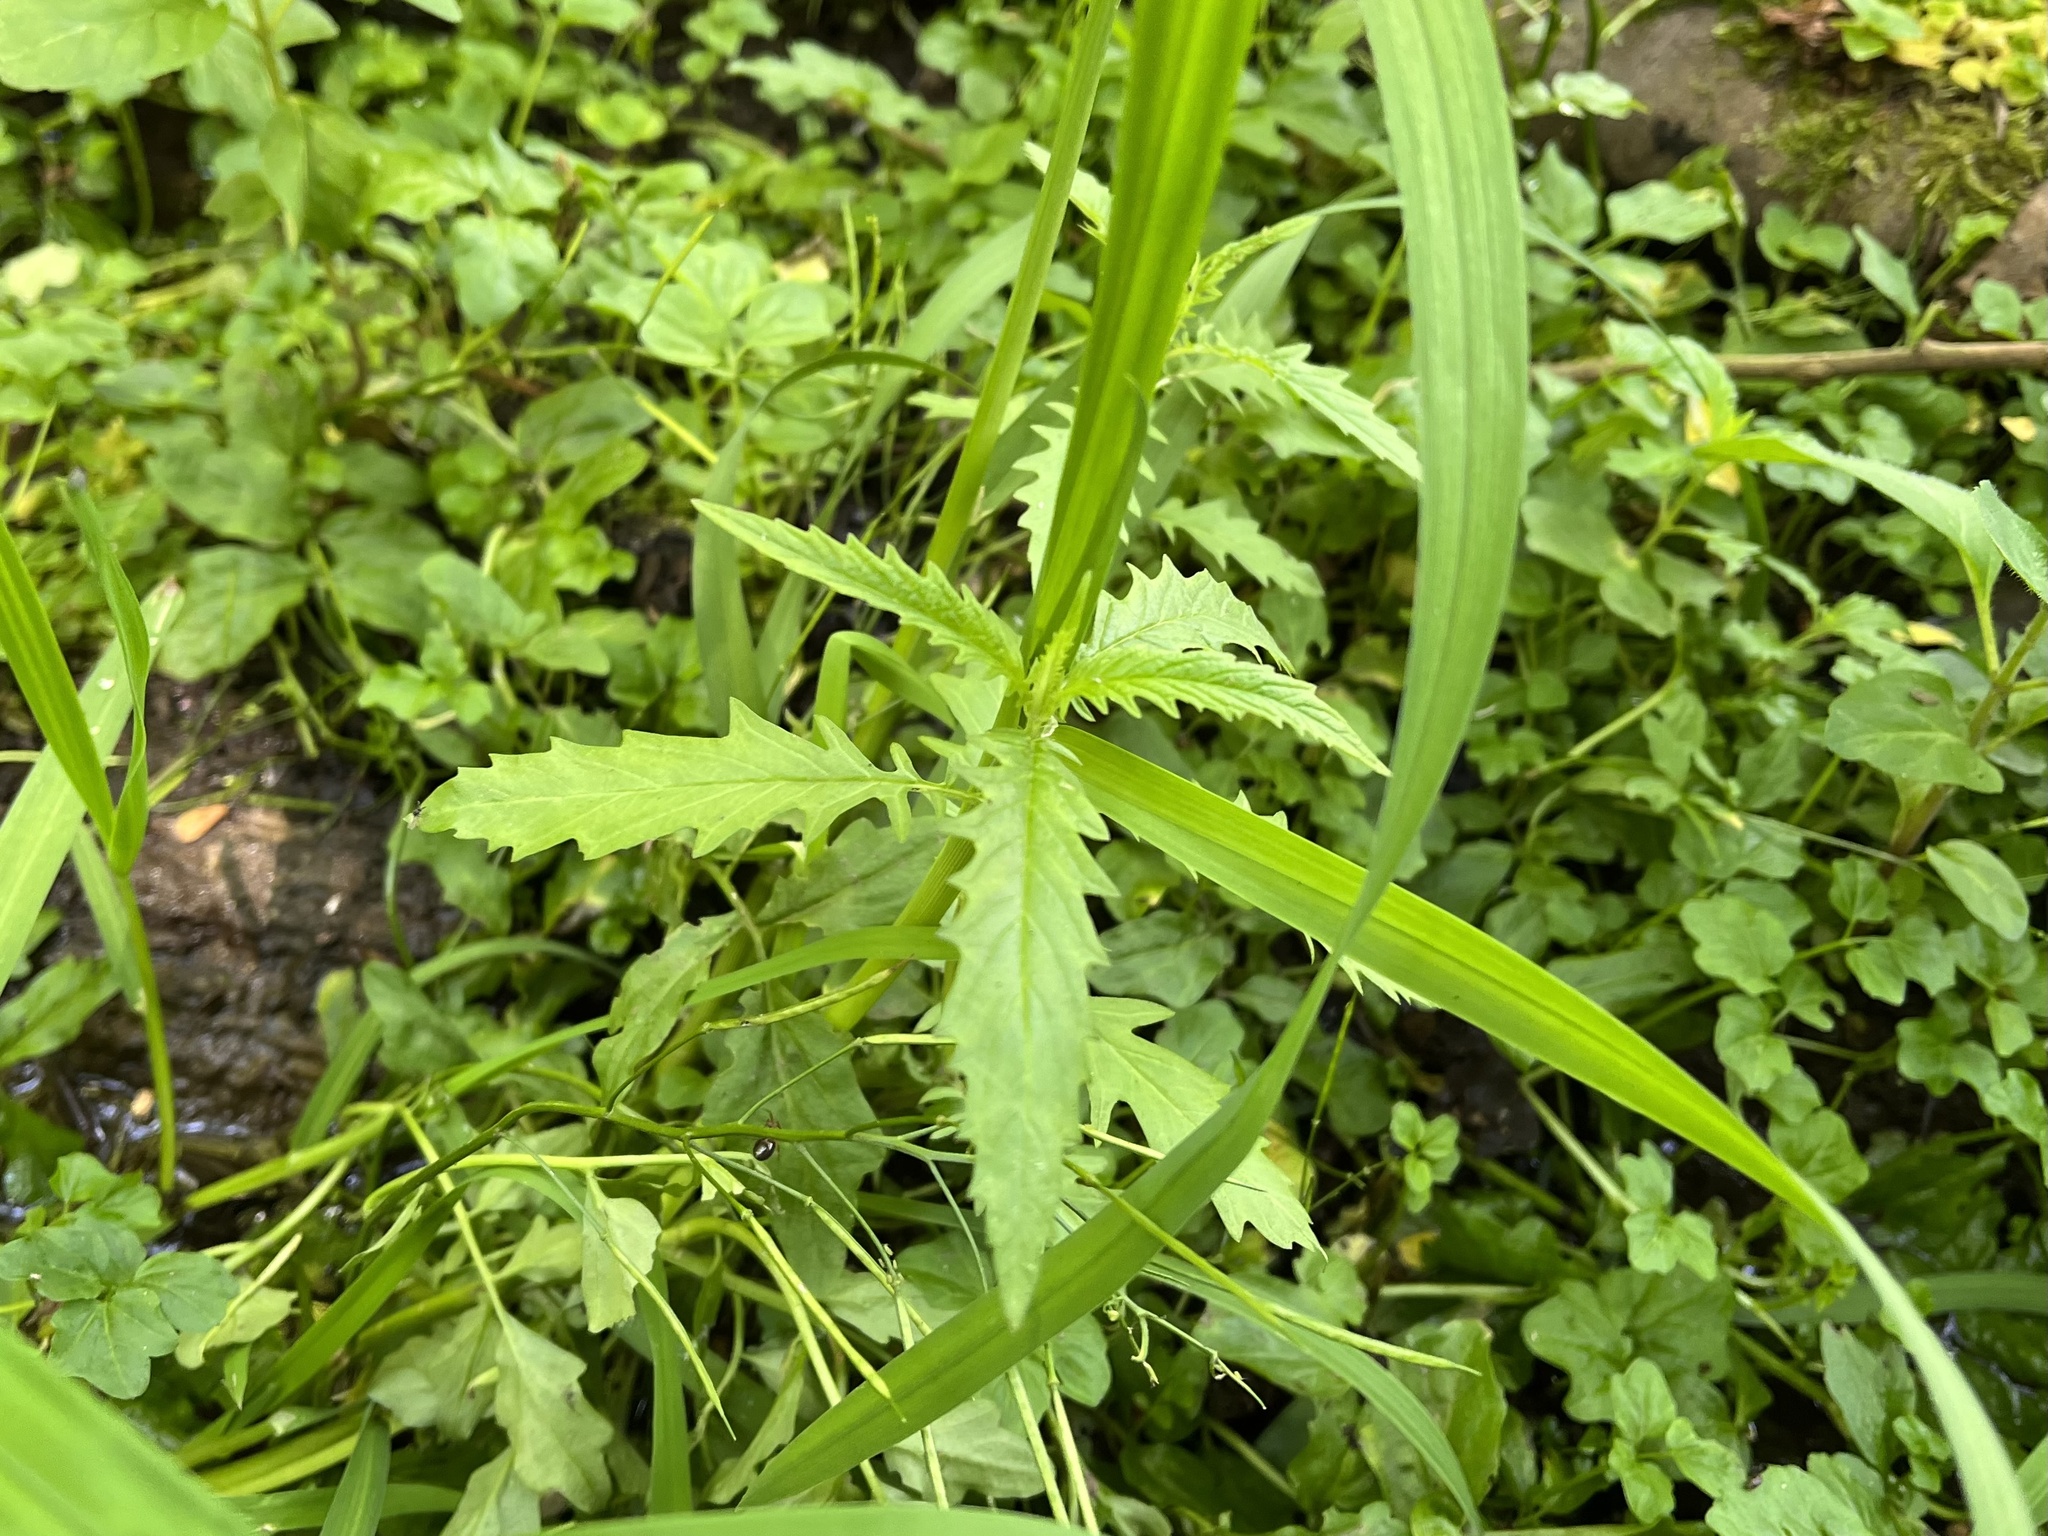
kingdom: Plantae
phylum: Tracheophyta
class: Magnoliopsida
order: Lamiales
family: Lamiaceae
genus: Lycopus
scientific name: Lycopus europaeus
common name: European bugleweed
